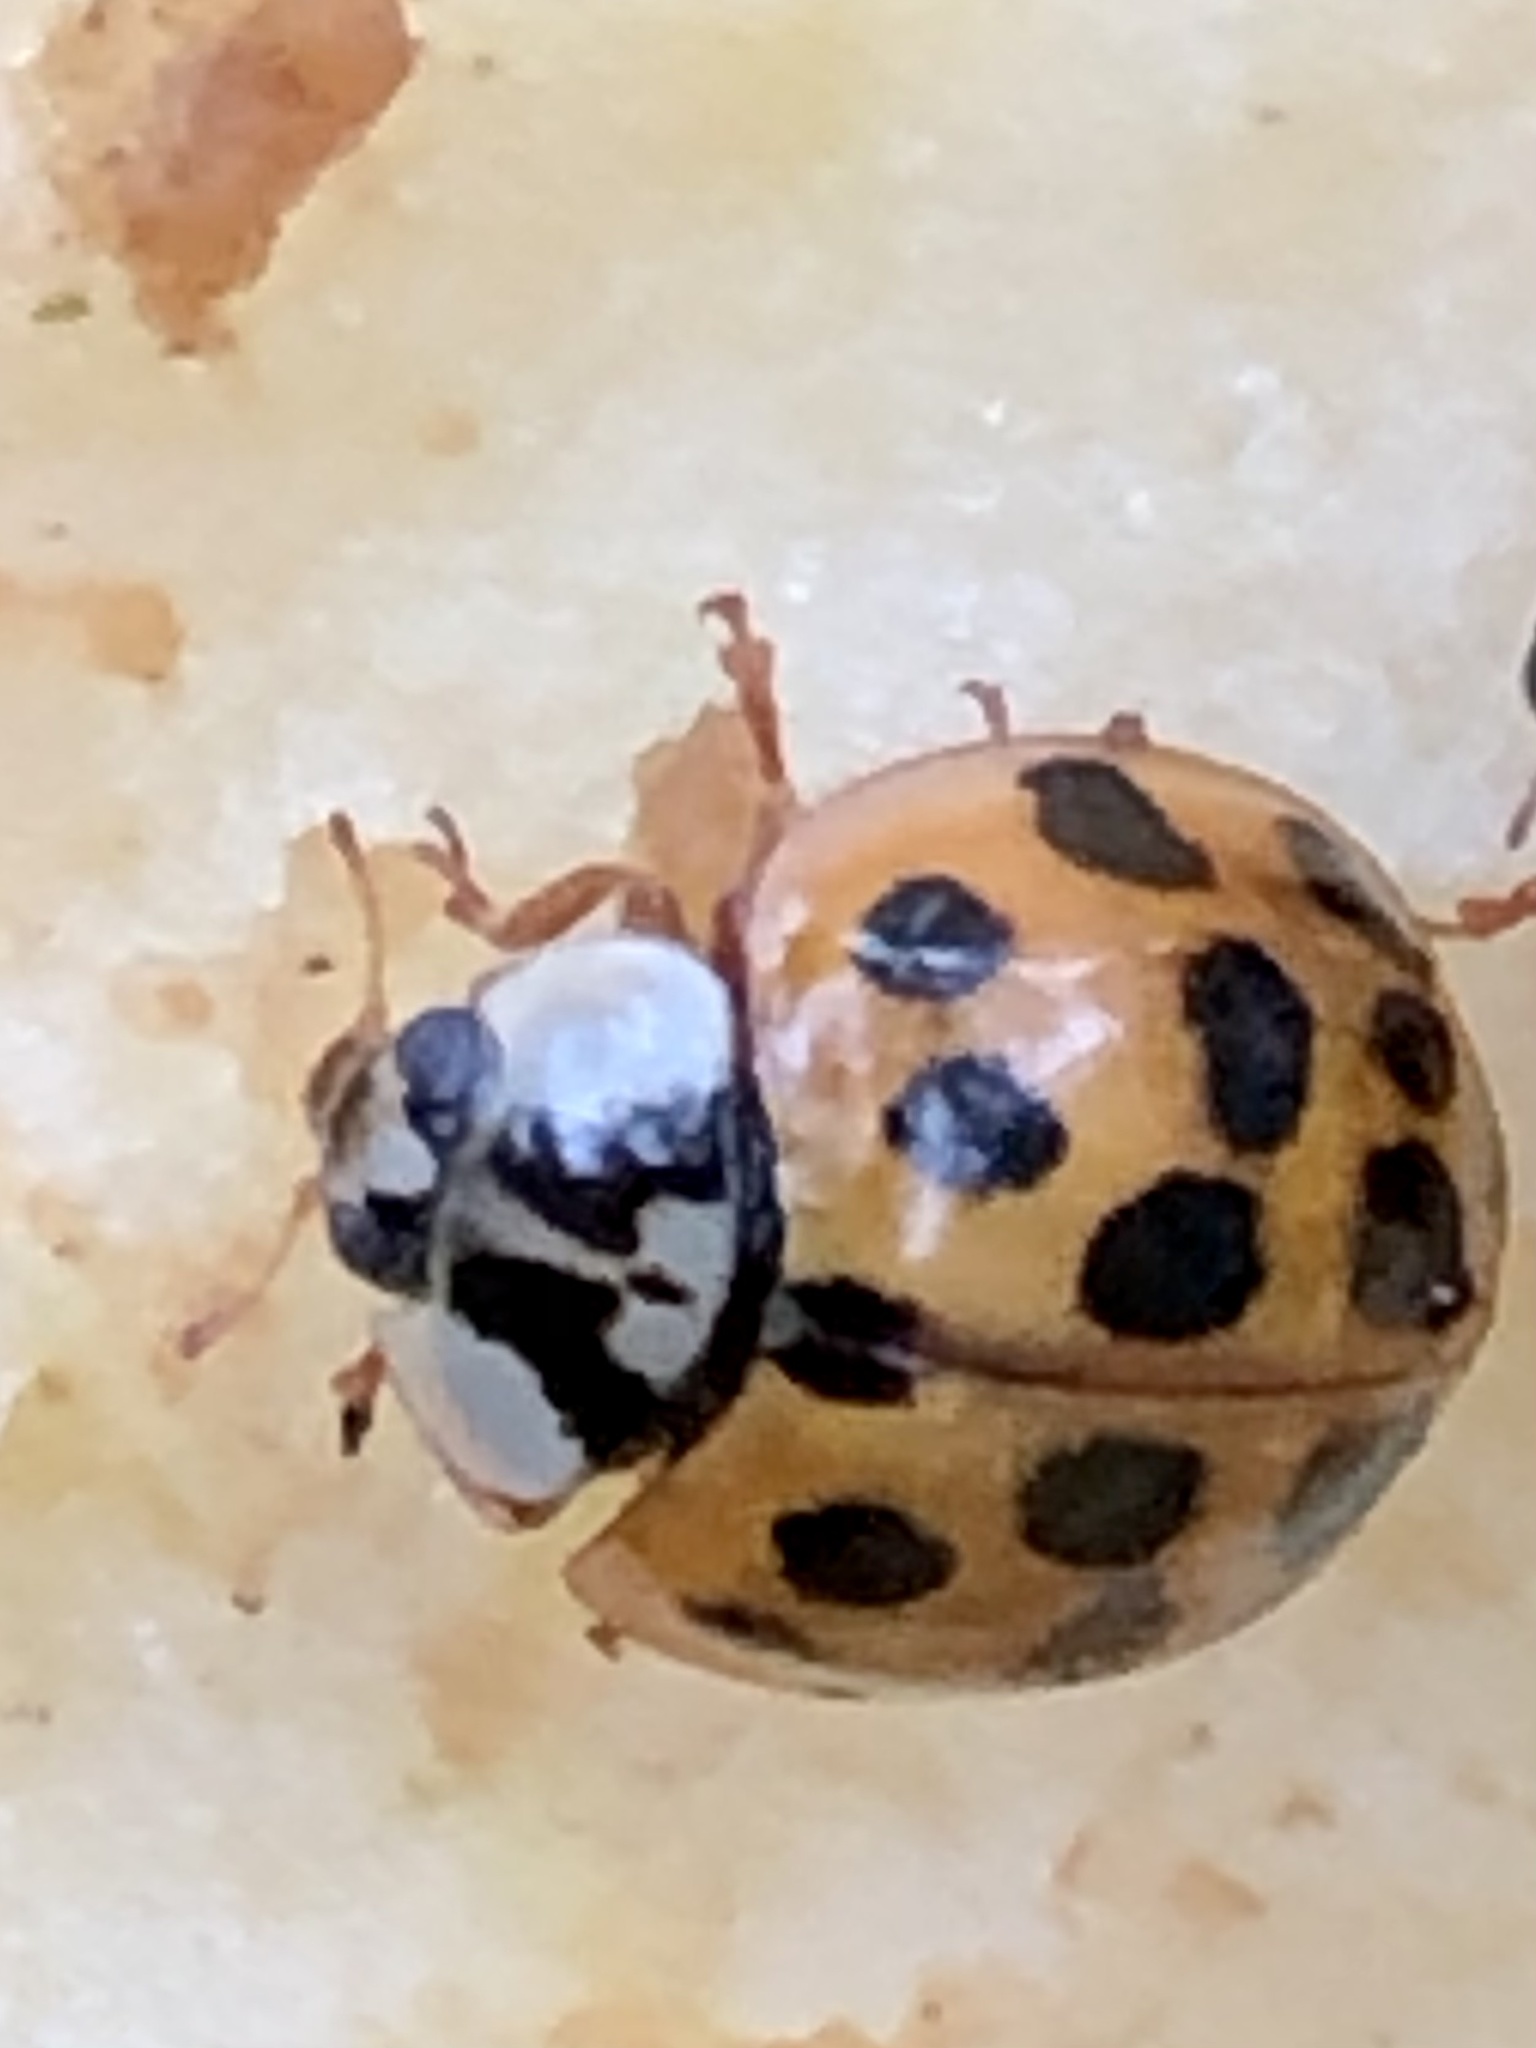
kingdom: Animalia
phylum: Arthropoda
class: Insecta
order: Coleoptera
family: Coccinellidae
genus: Harmonia
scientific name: Harmonia axyridis
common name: Harlequin ladybird
